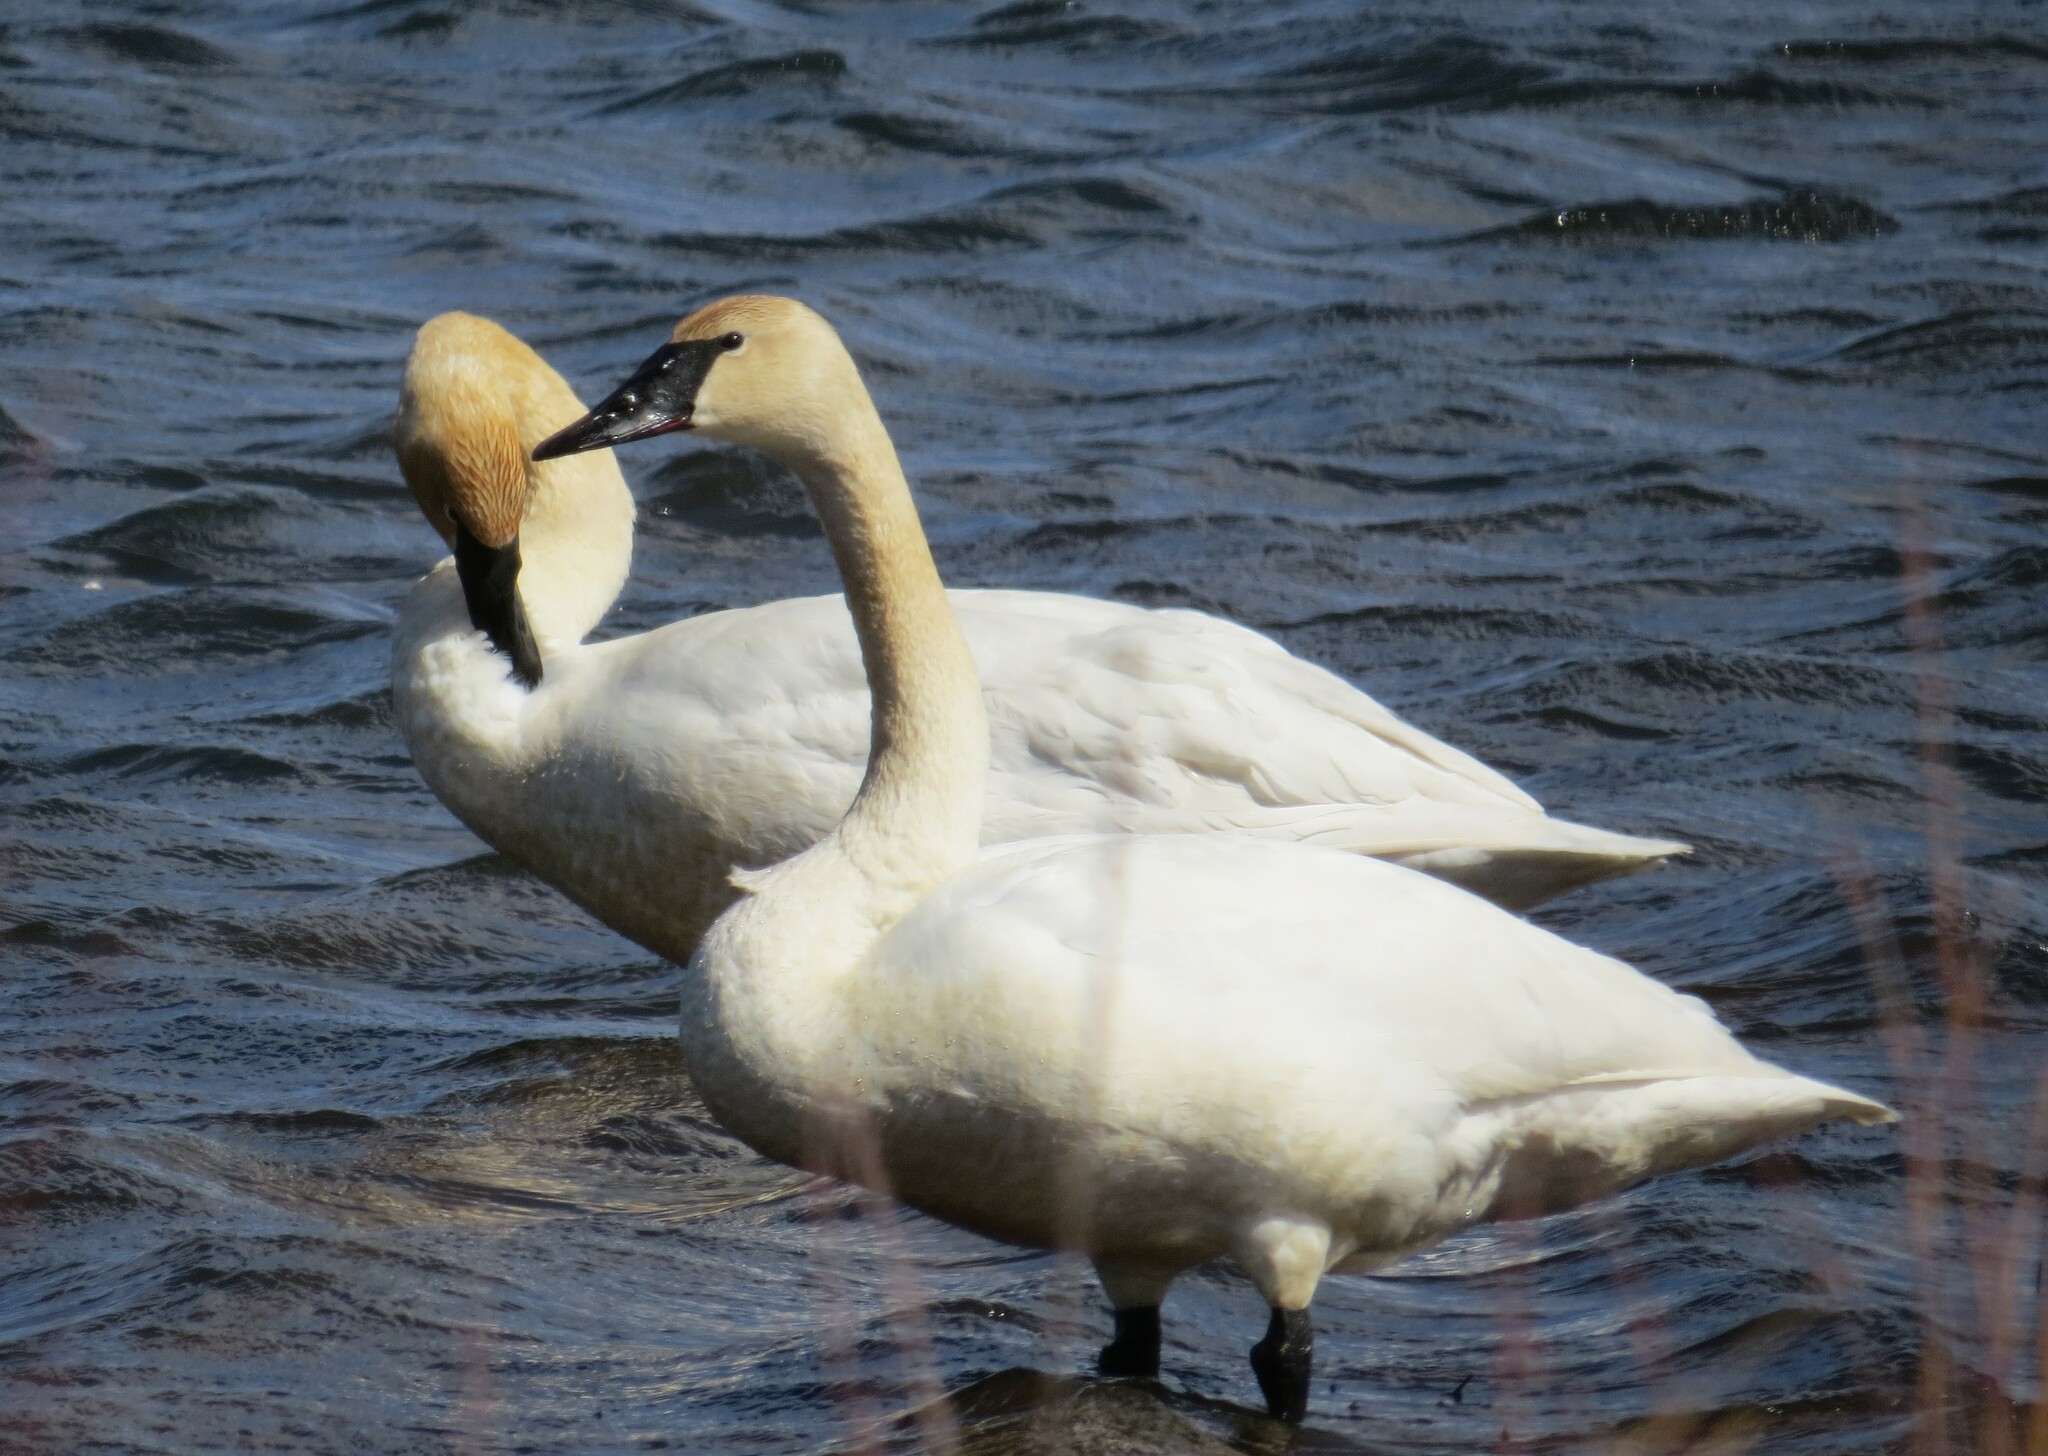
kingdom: Animalia
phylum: Chordata
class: Aves
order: Anseriformes
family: Anatidae
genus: Cygnus
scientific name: Cygnus buccinator
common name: Trumpeter swan
